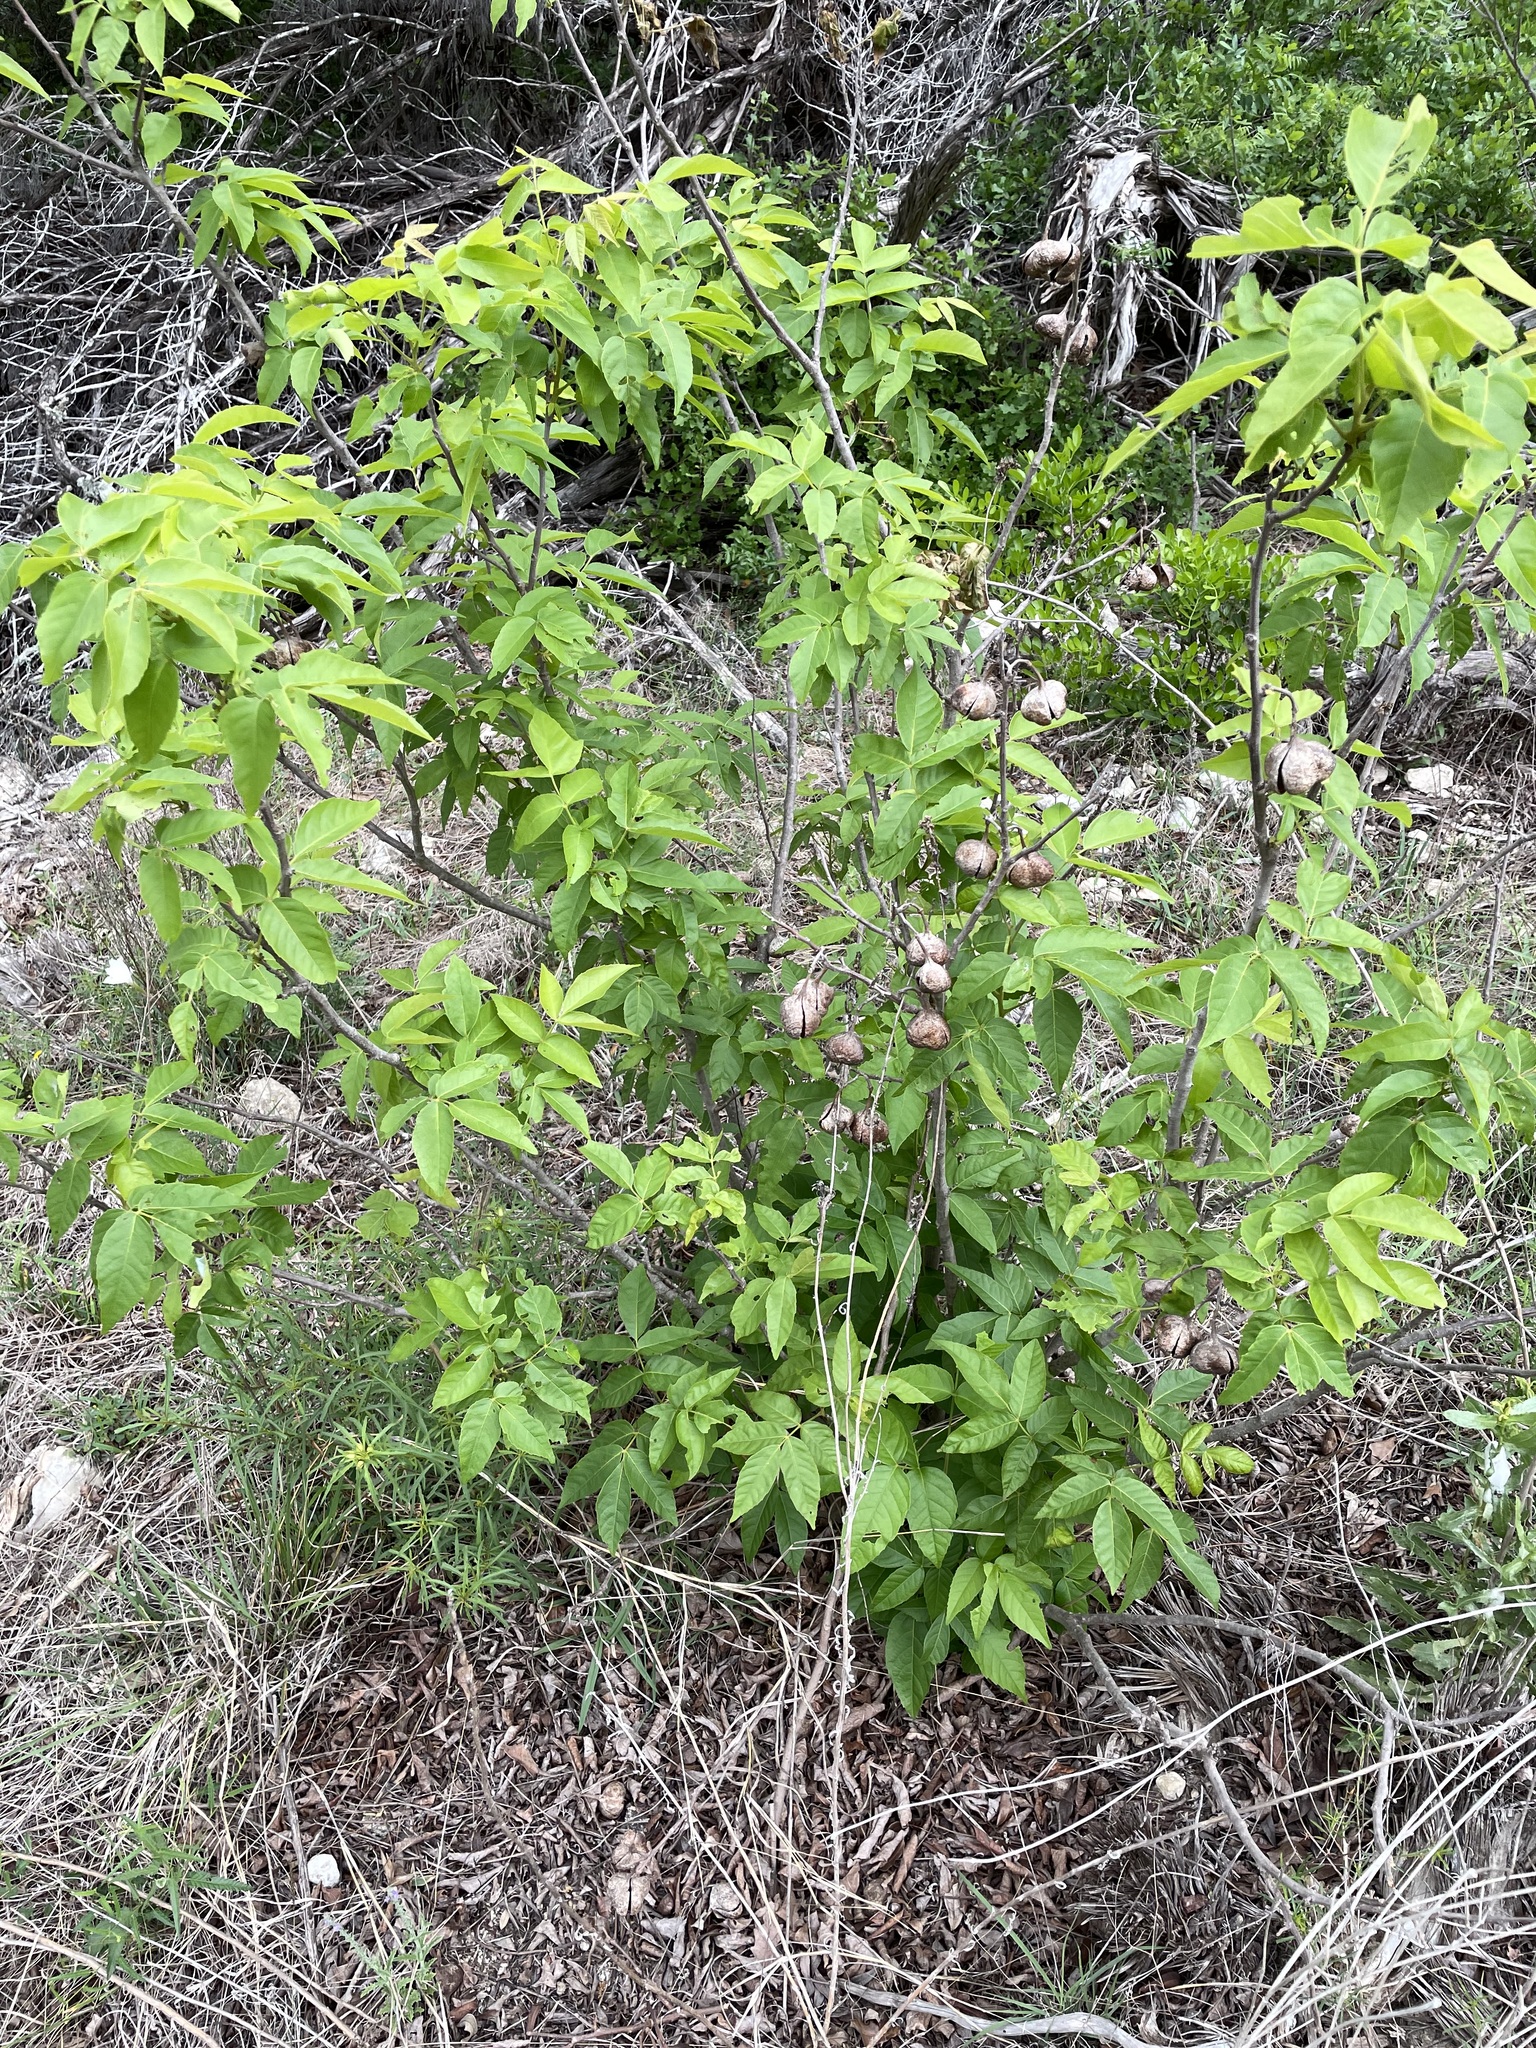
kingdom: Plantae
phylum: Tracheophyta
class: Magnoliopsida
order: Sapindales
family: Sapindaceae
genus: Ungnadia
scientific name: Ungnadia speciosa
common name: Texas-buckeye
